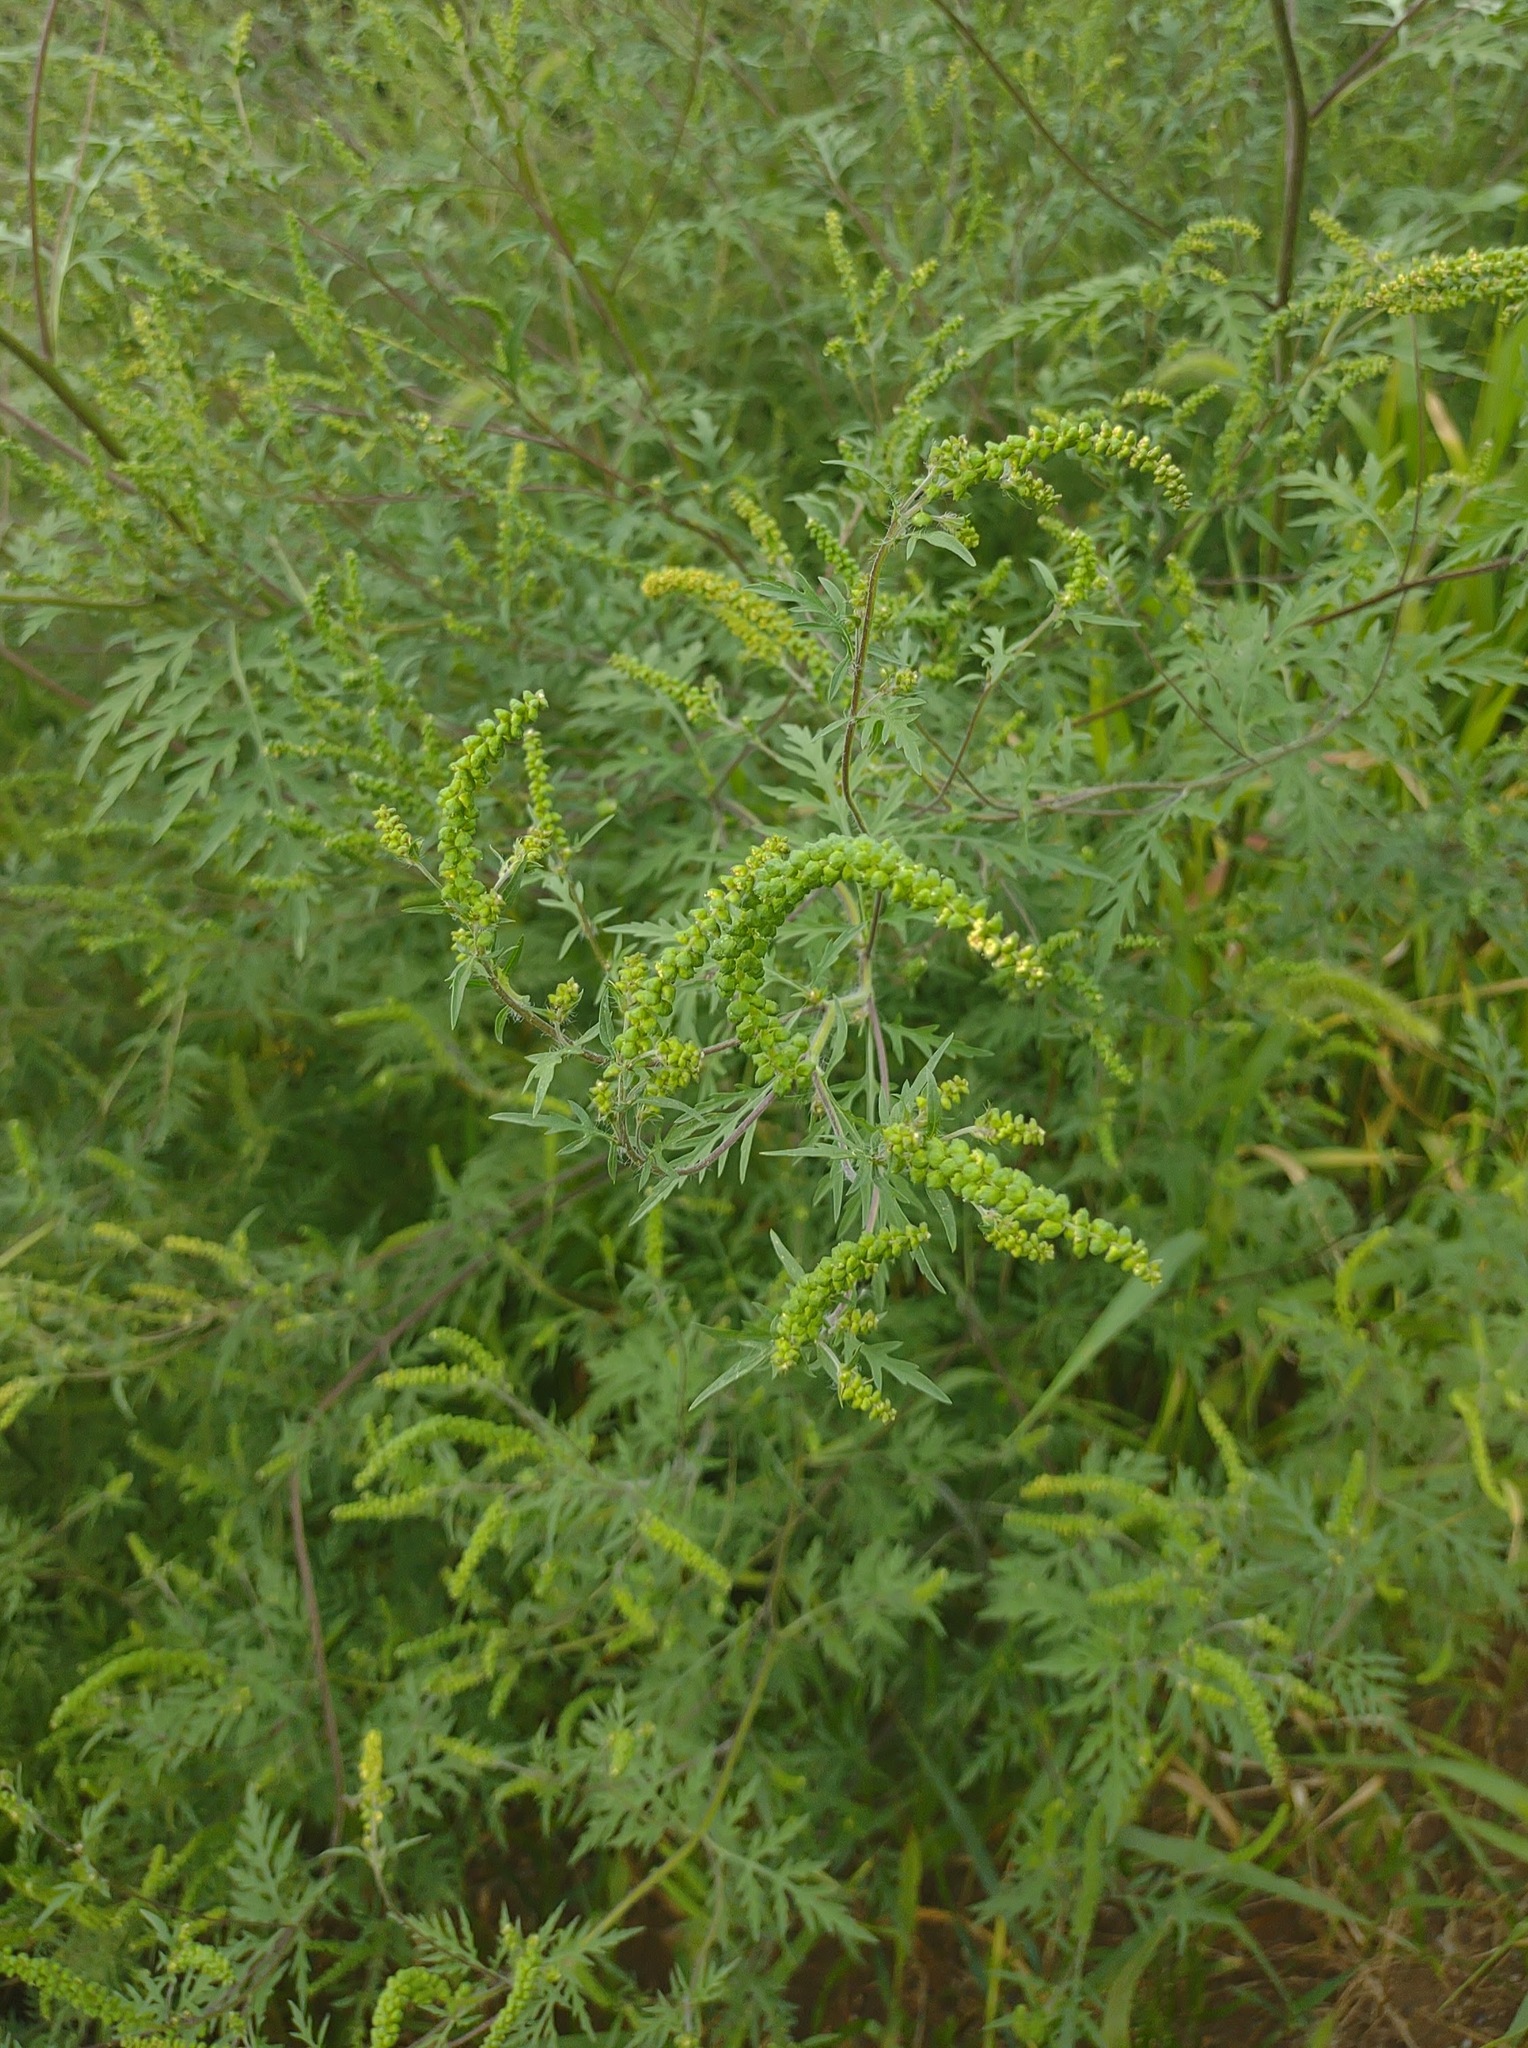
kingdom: Plantae
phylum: Tracheophyta
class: Magnoliopsida
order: Asterales
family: Asteraceae
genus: Ambrosia
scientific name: Ambrosia artemisiifolia
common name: Annual ragweed
